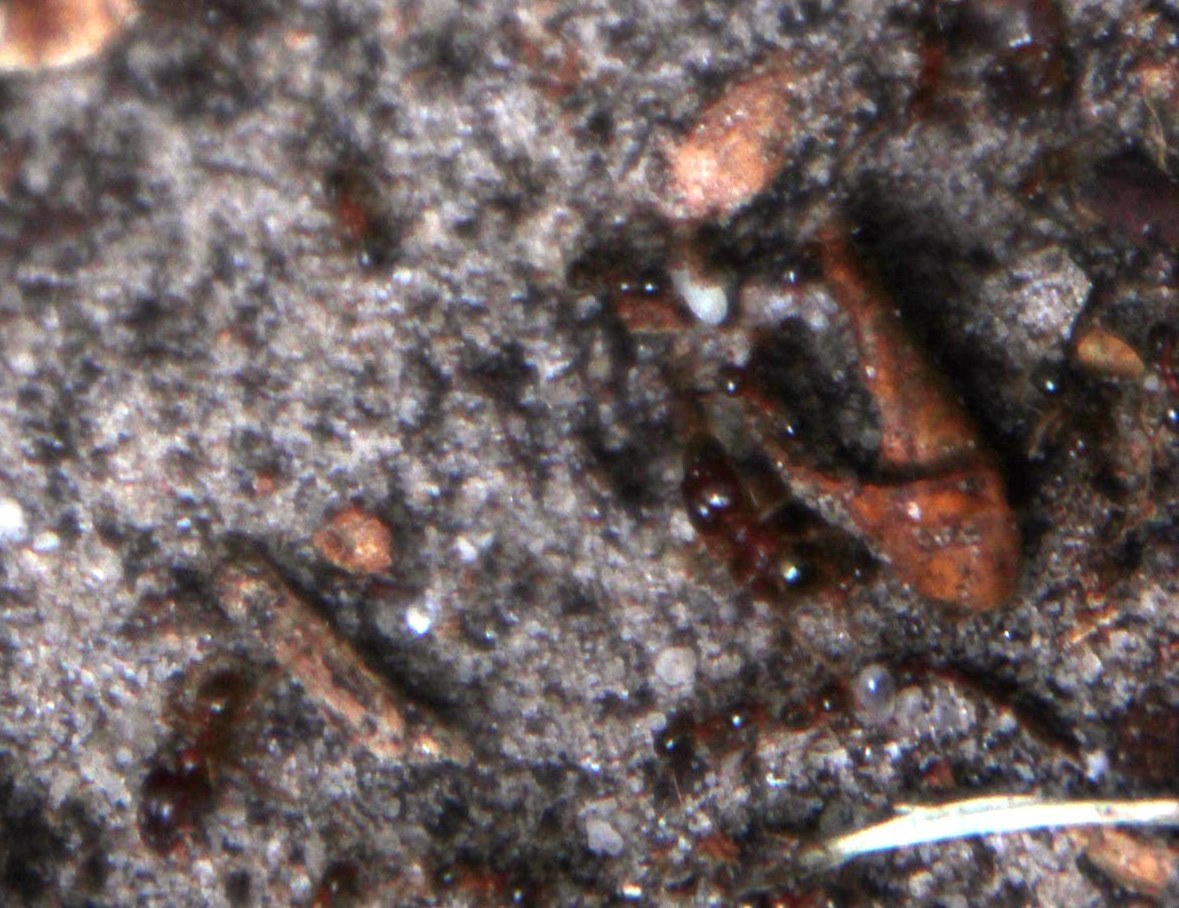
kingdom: Animalia
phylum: Arthropoda
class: Insecta
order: Hymenoptera
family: Formicidae
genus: Pheidole
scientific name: Pheidole megacephala
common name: Bigheaded ant
